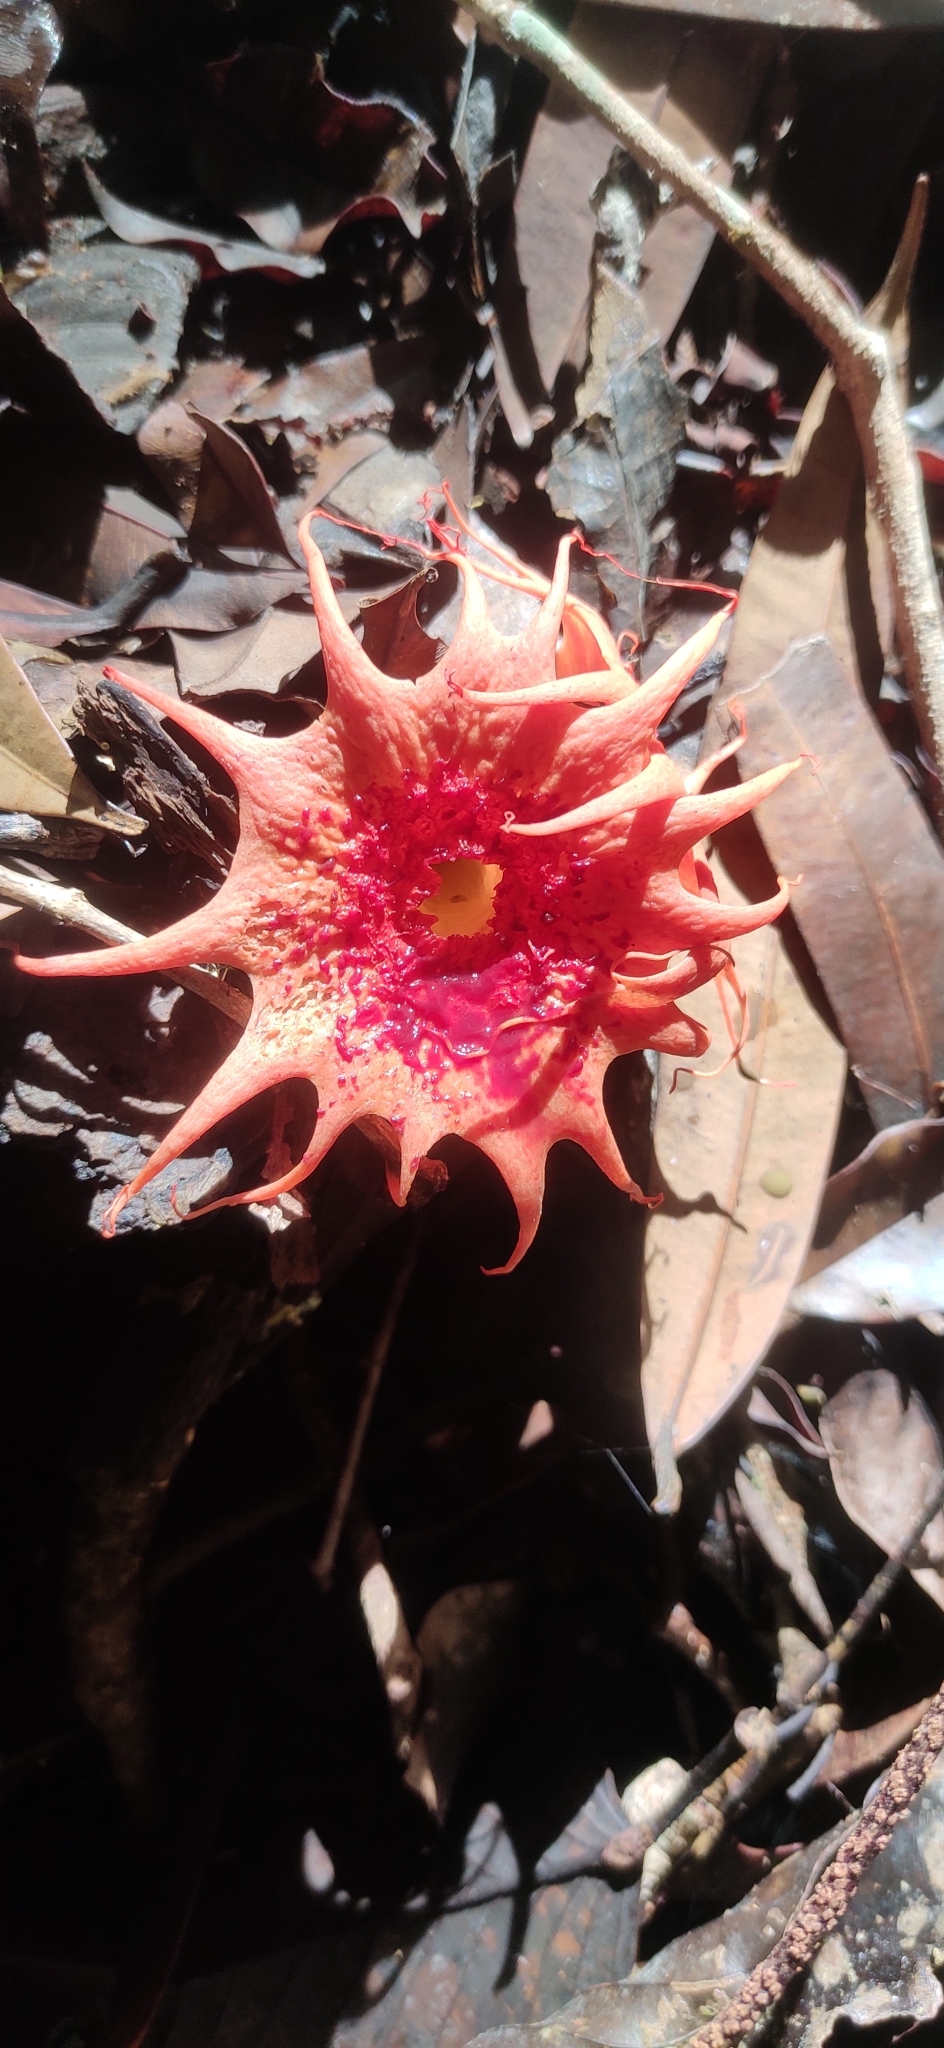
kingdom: Fungi
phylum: Basidiomycota
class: Agaricomycetes
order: Phallales
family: Phallaceae
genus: Aseroe
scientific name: Aseroe rubra
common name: Starfish fungus
